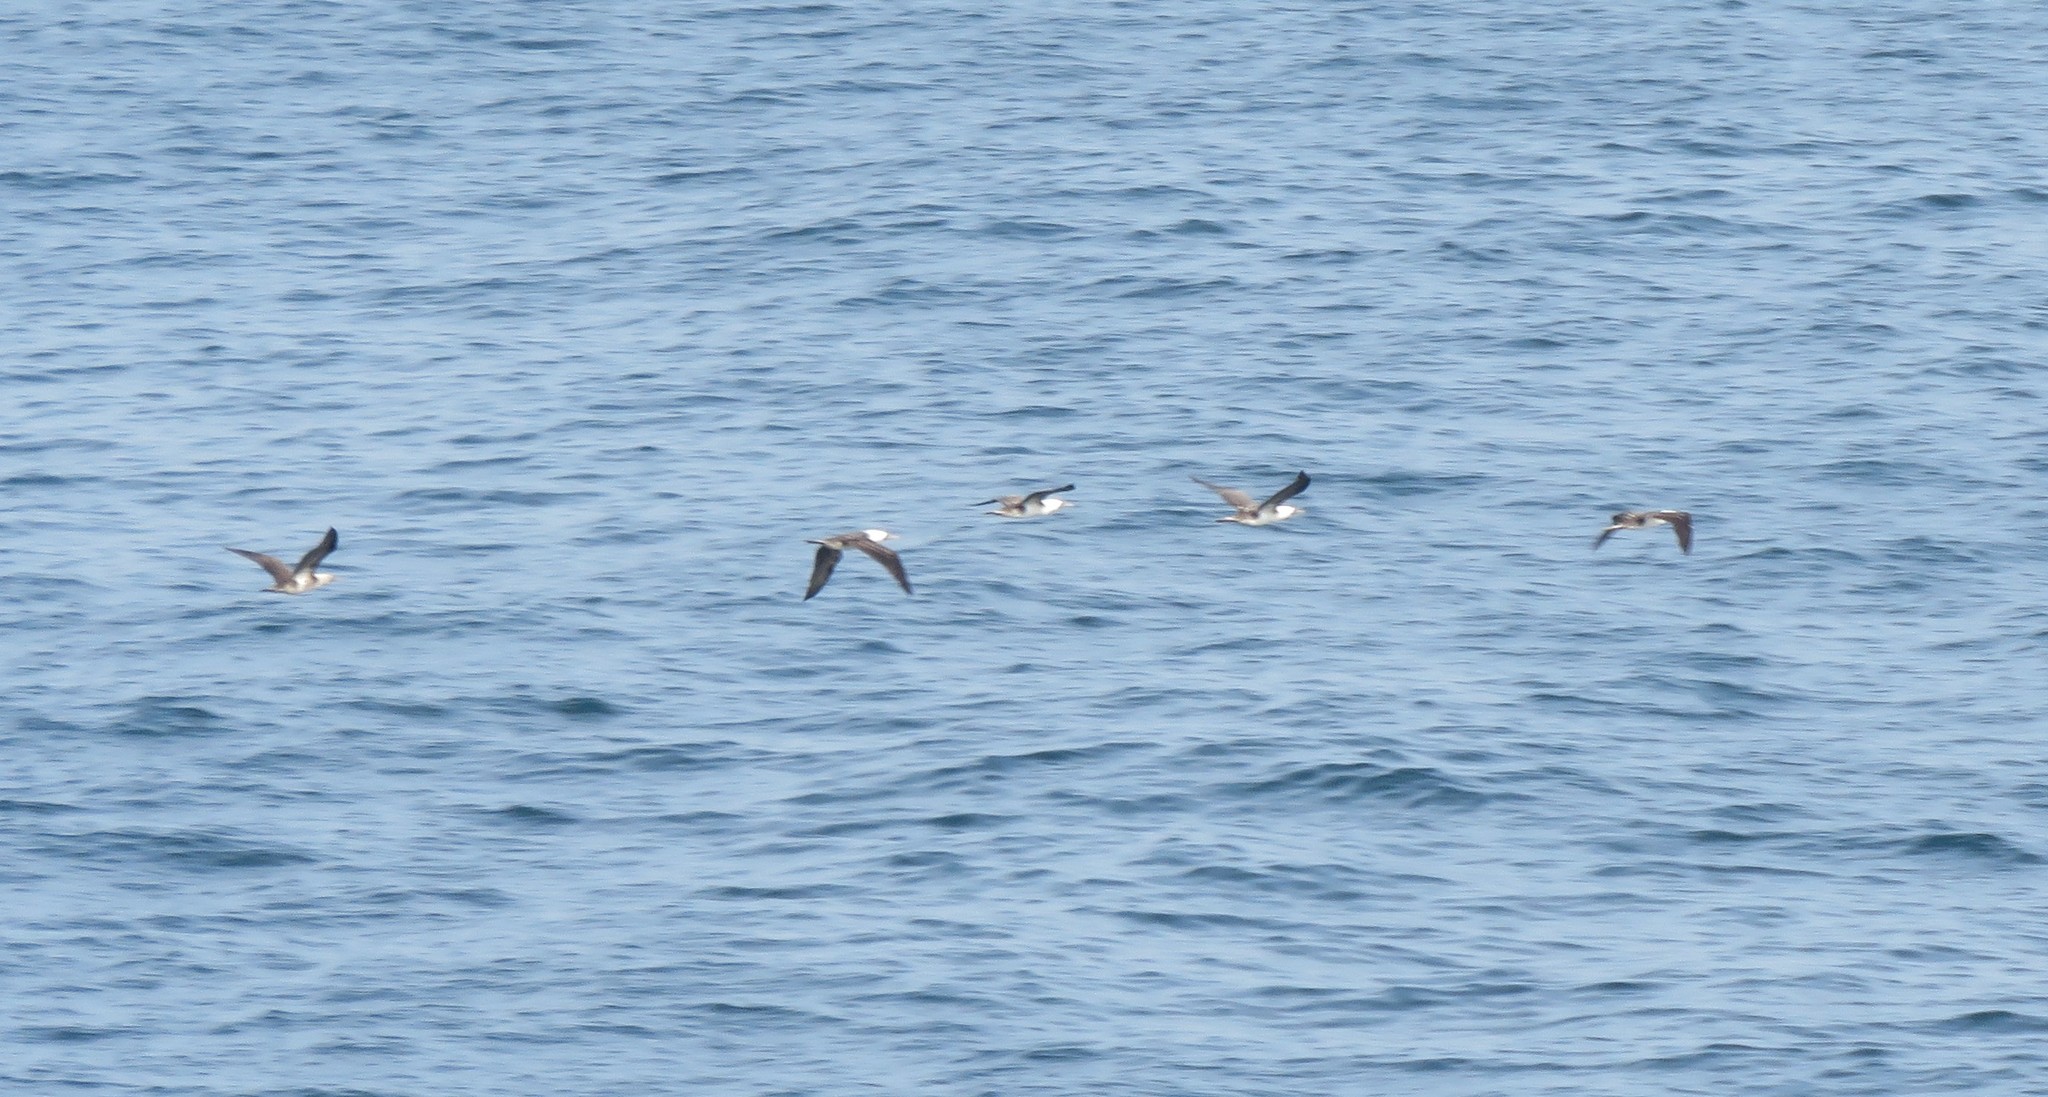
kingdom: Animalia
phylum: Chordata
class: Aves
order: Suliformes
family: Sulidae
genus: Sula
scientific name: Sula variegata
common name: Peruvian booby
